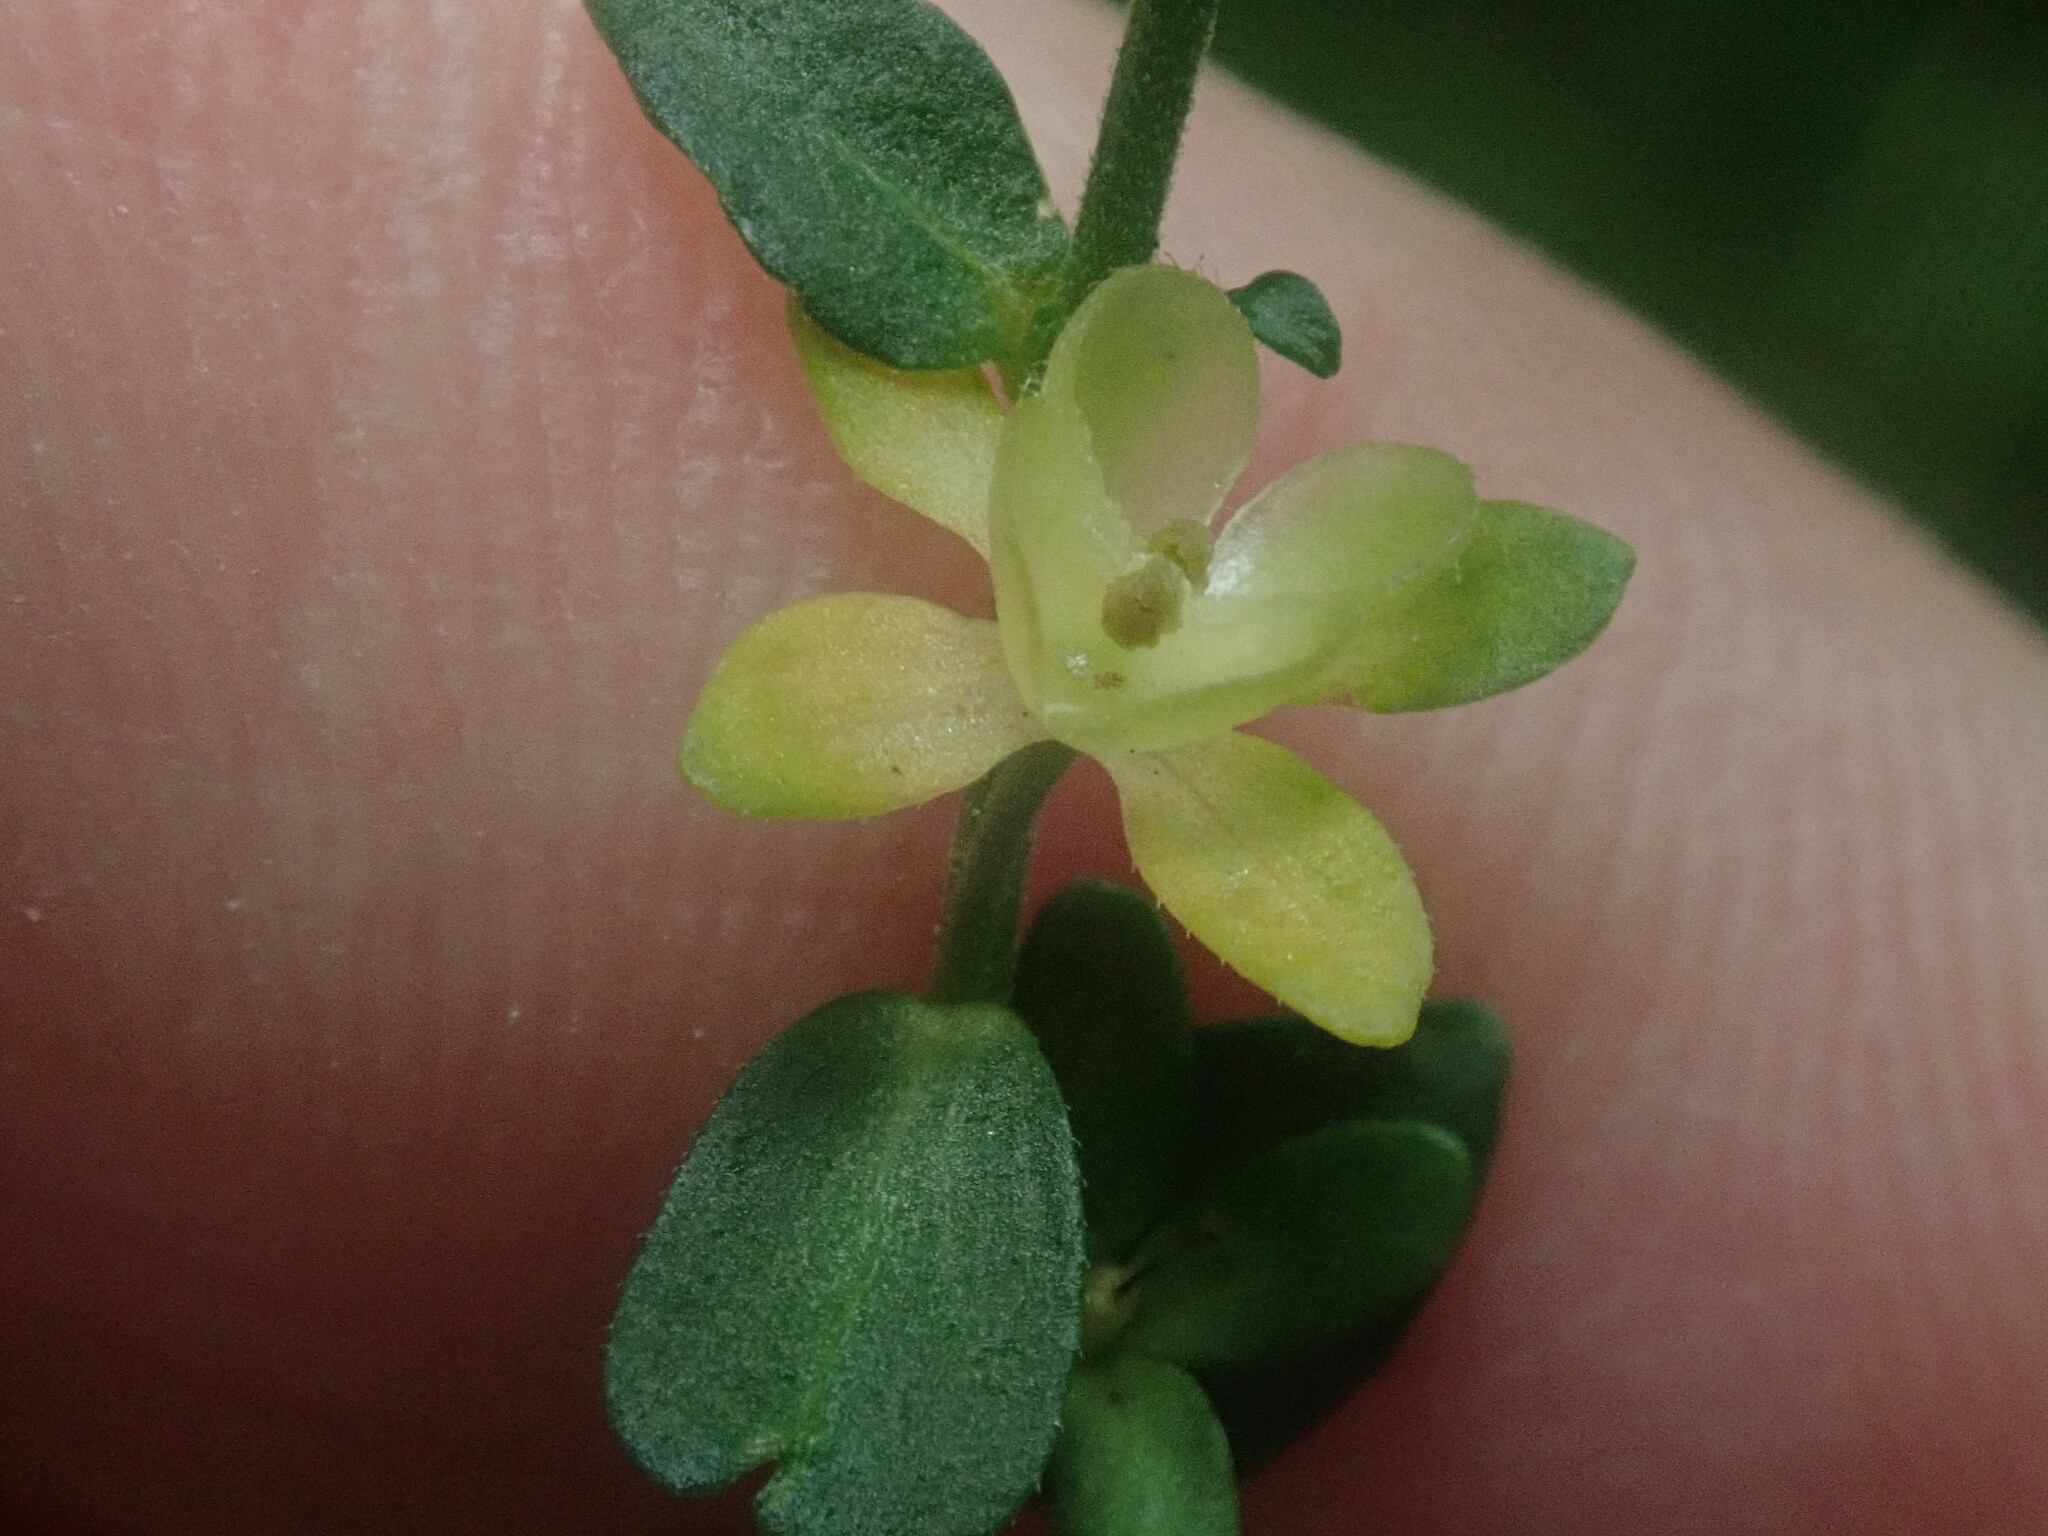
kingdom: Plantae
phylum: Tracheophyta
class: Magnoliopsida
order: Lamiales
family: Plantaginaceae
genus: Veronica
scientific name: Veronica serpyllifolia
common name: Thyme-leaved speedwell
